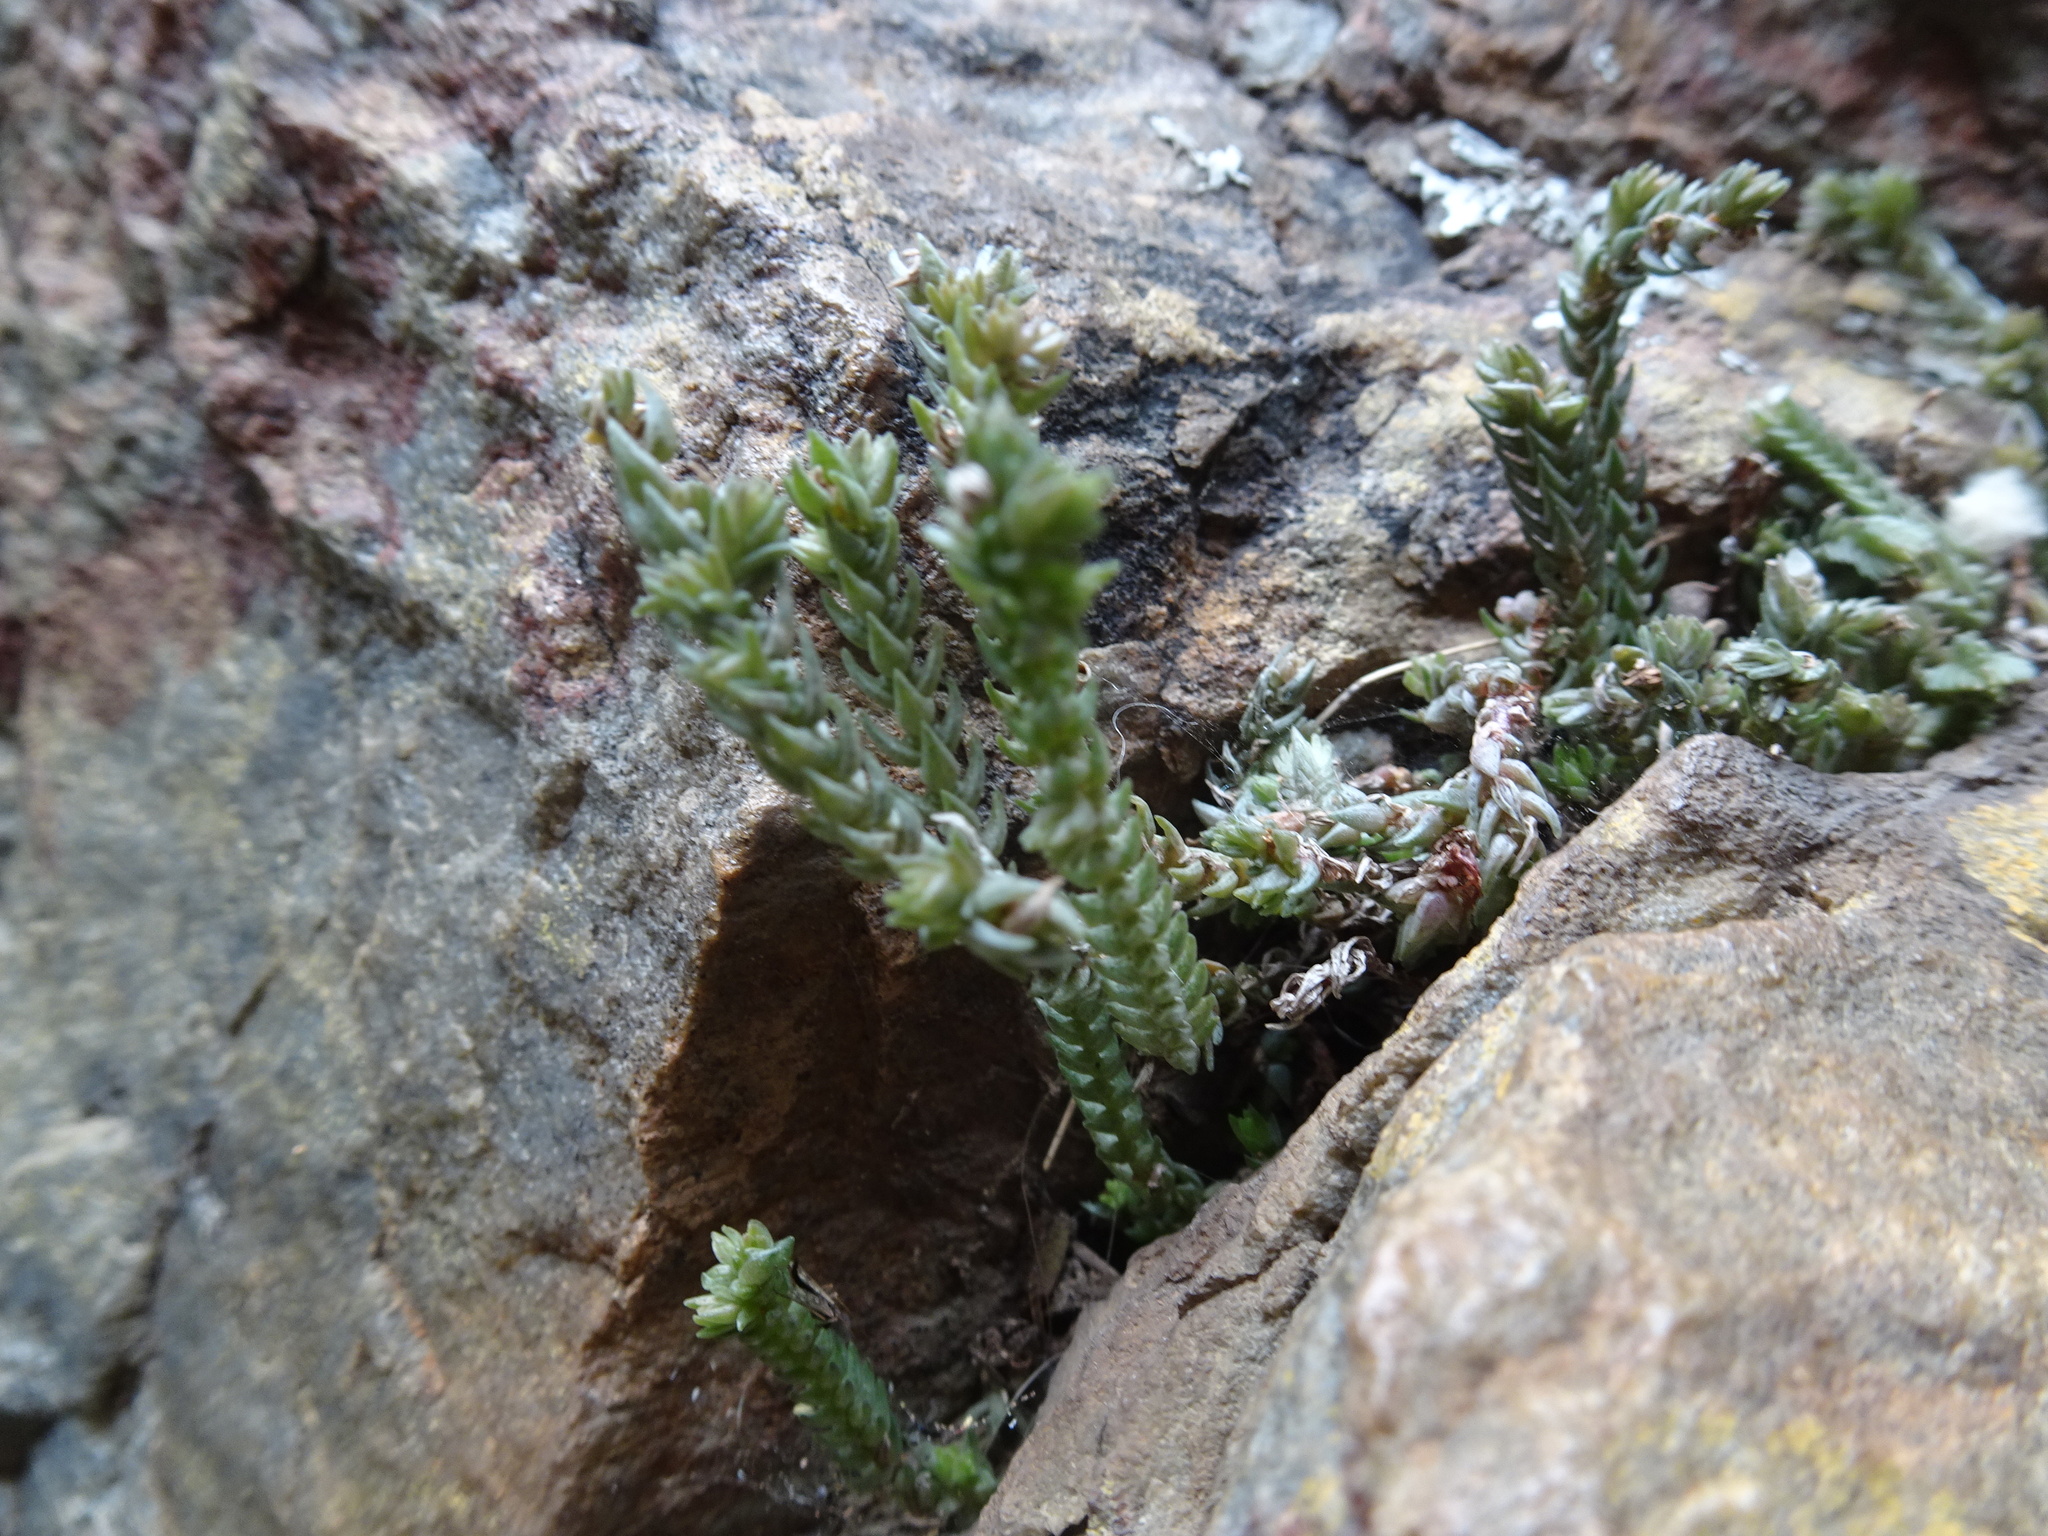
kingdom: Plantae
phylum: Tracheophyta
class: Magnoliopsida
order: Saxifragales
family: Crassulaceae
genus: Crassula
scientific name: Crassula muscosa
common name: Toy-cypress
